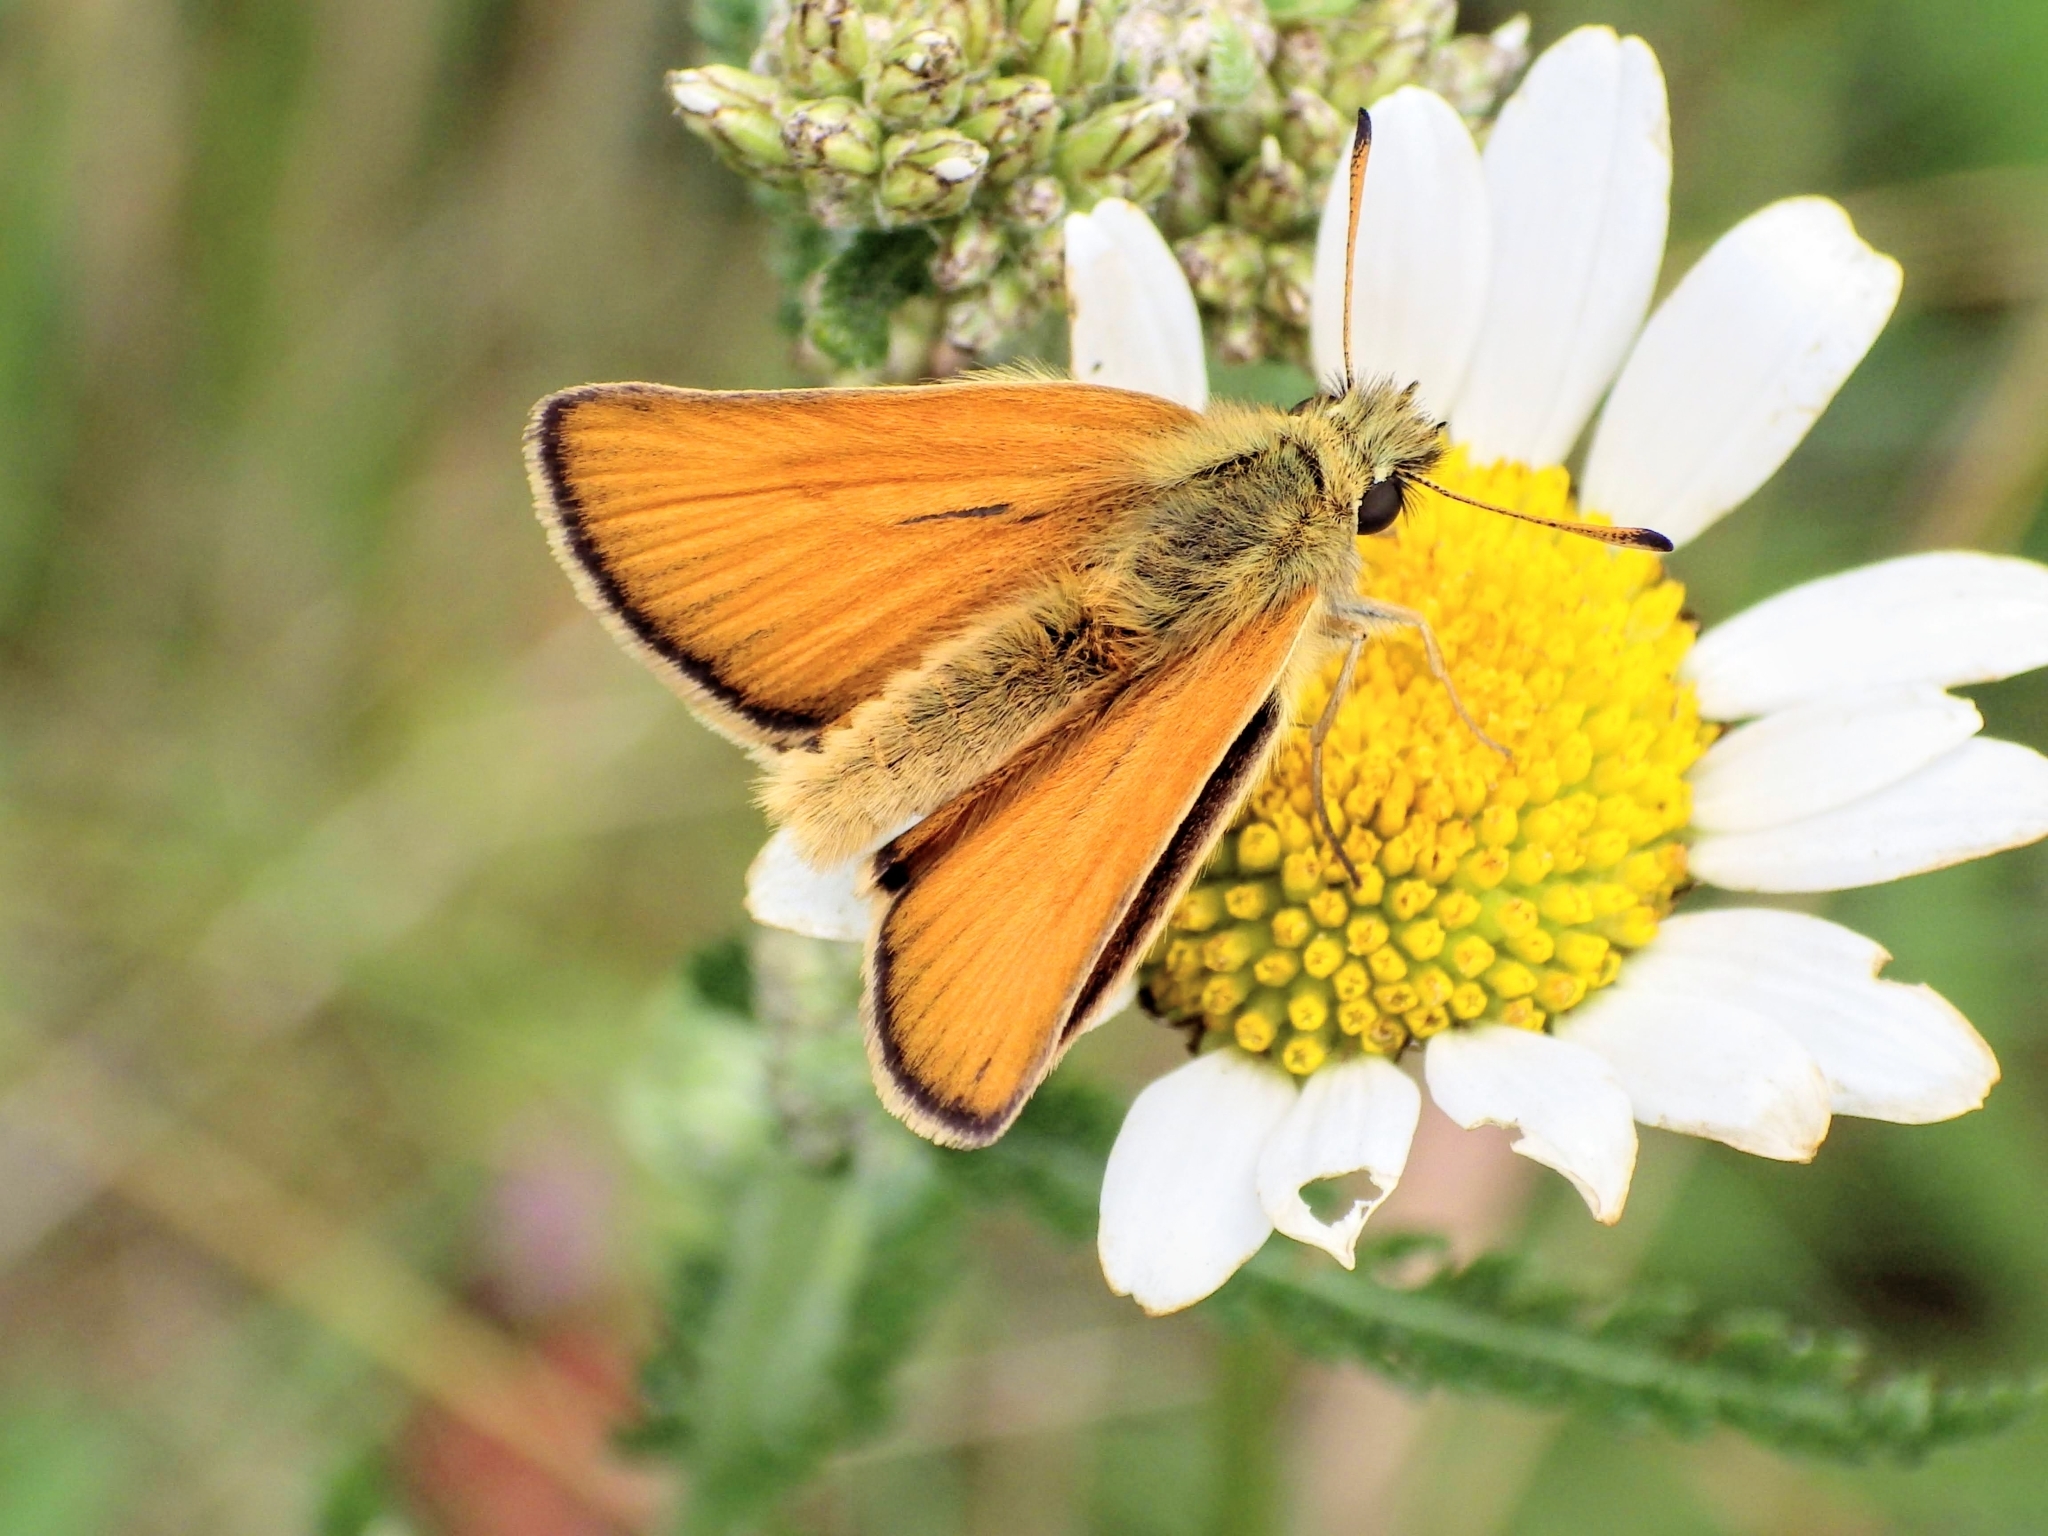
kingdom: Animalia
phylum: Arthropoda
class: Insecta
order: Lepidoptera
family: Hesperiidae
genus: Thymelicus
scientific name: Thymelicus lineola
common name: Essex skipper
